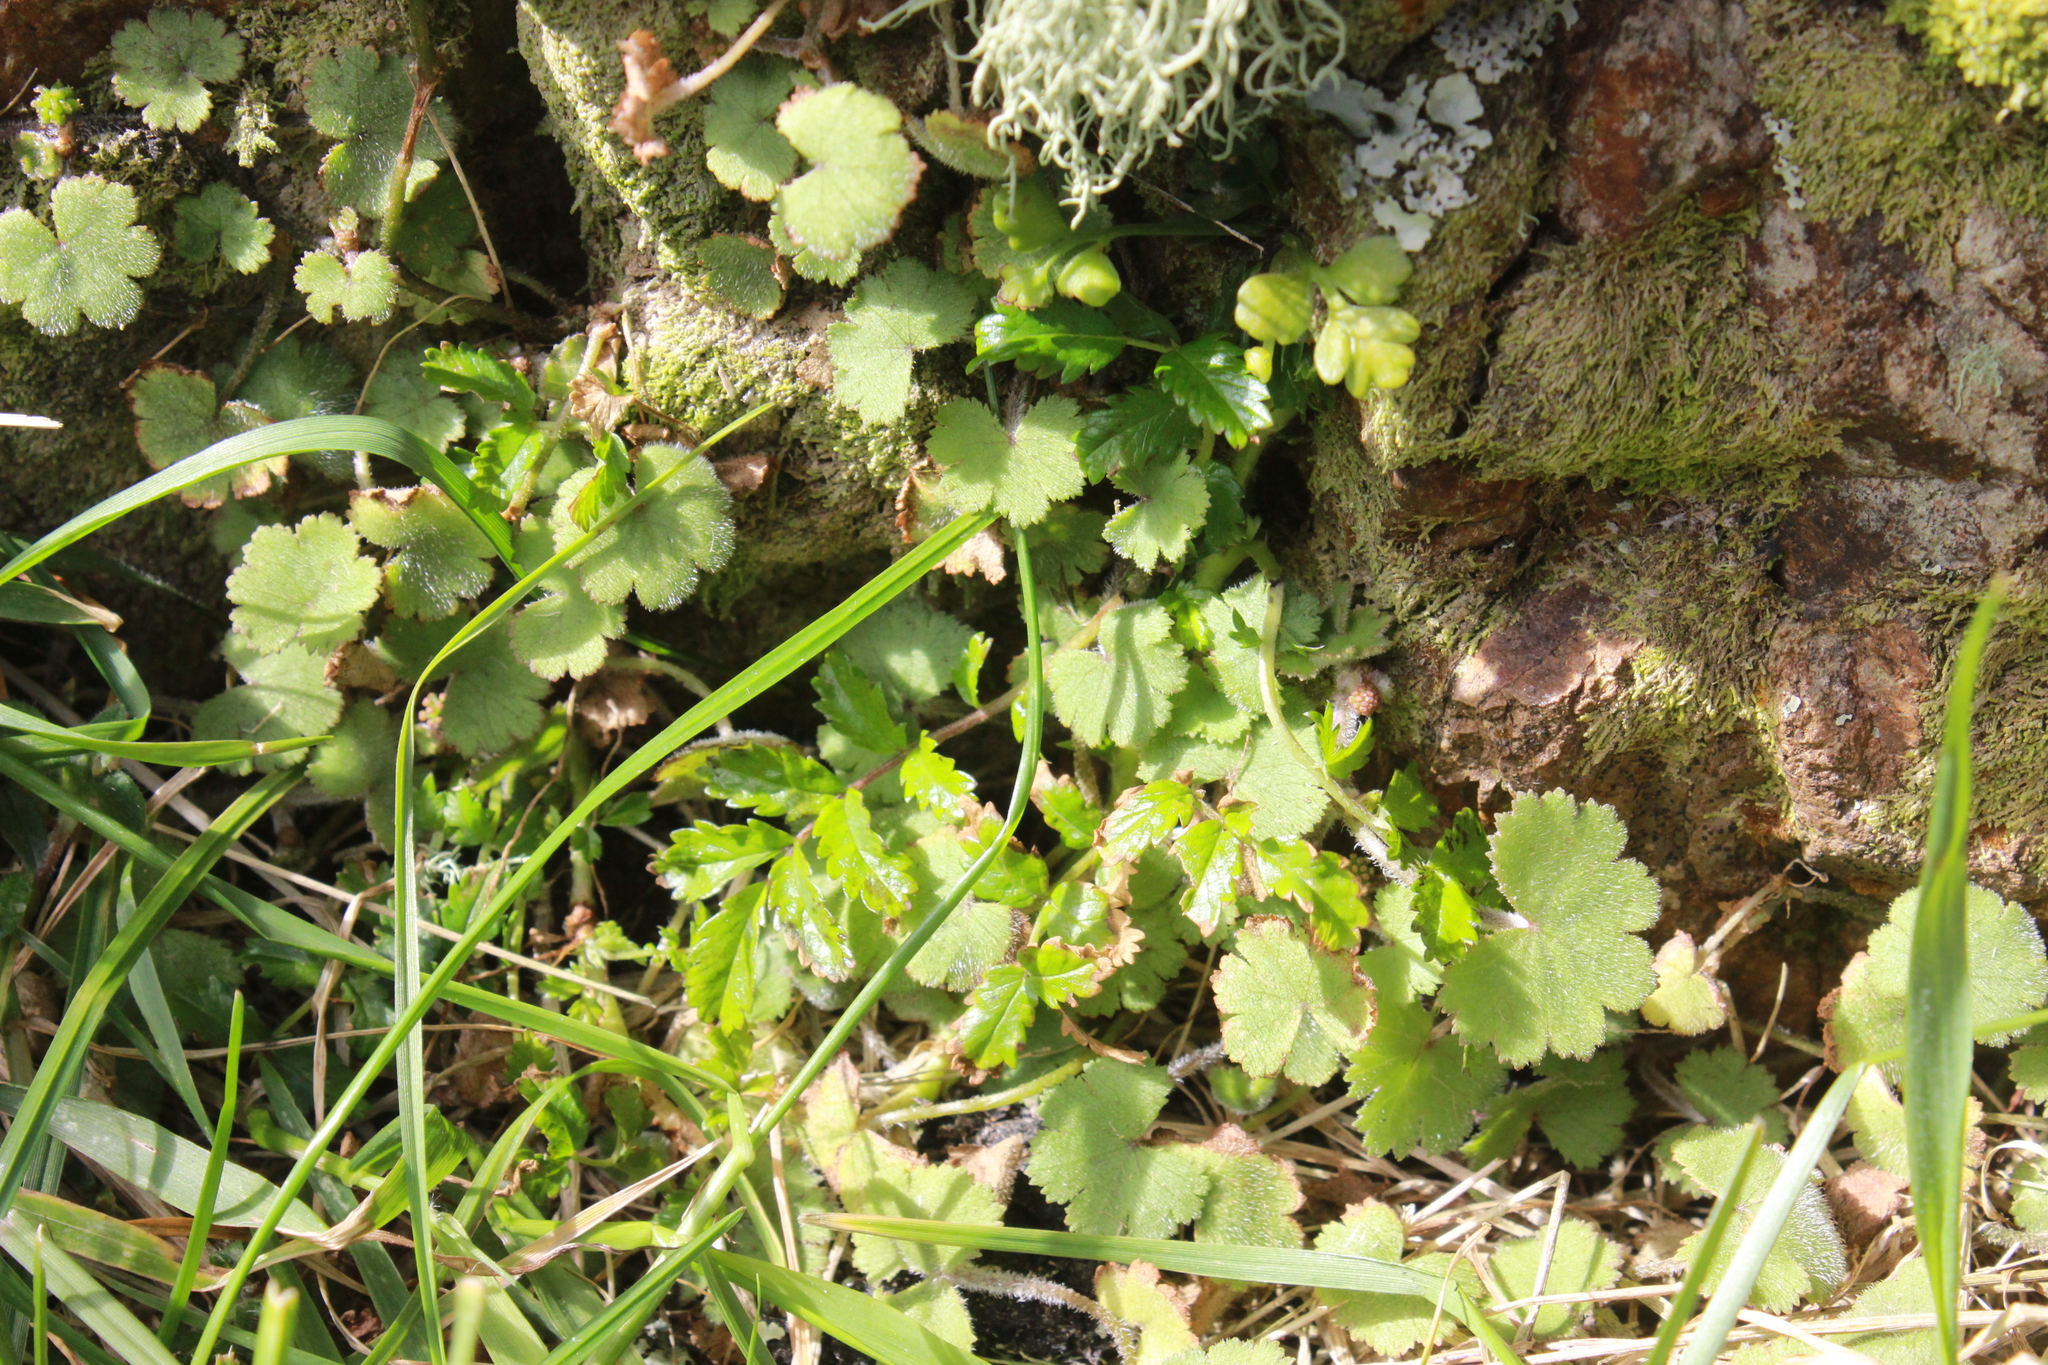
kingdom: Plantae
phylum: Tracheophyta
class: Magnoliopsida
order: Apiales
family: Araliaceae
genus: Hydrocotyle
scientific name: Hydrocotyle moschata
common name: Hairy pennywort
